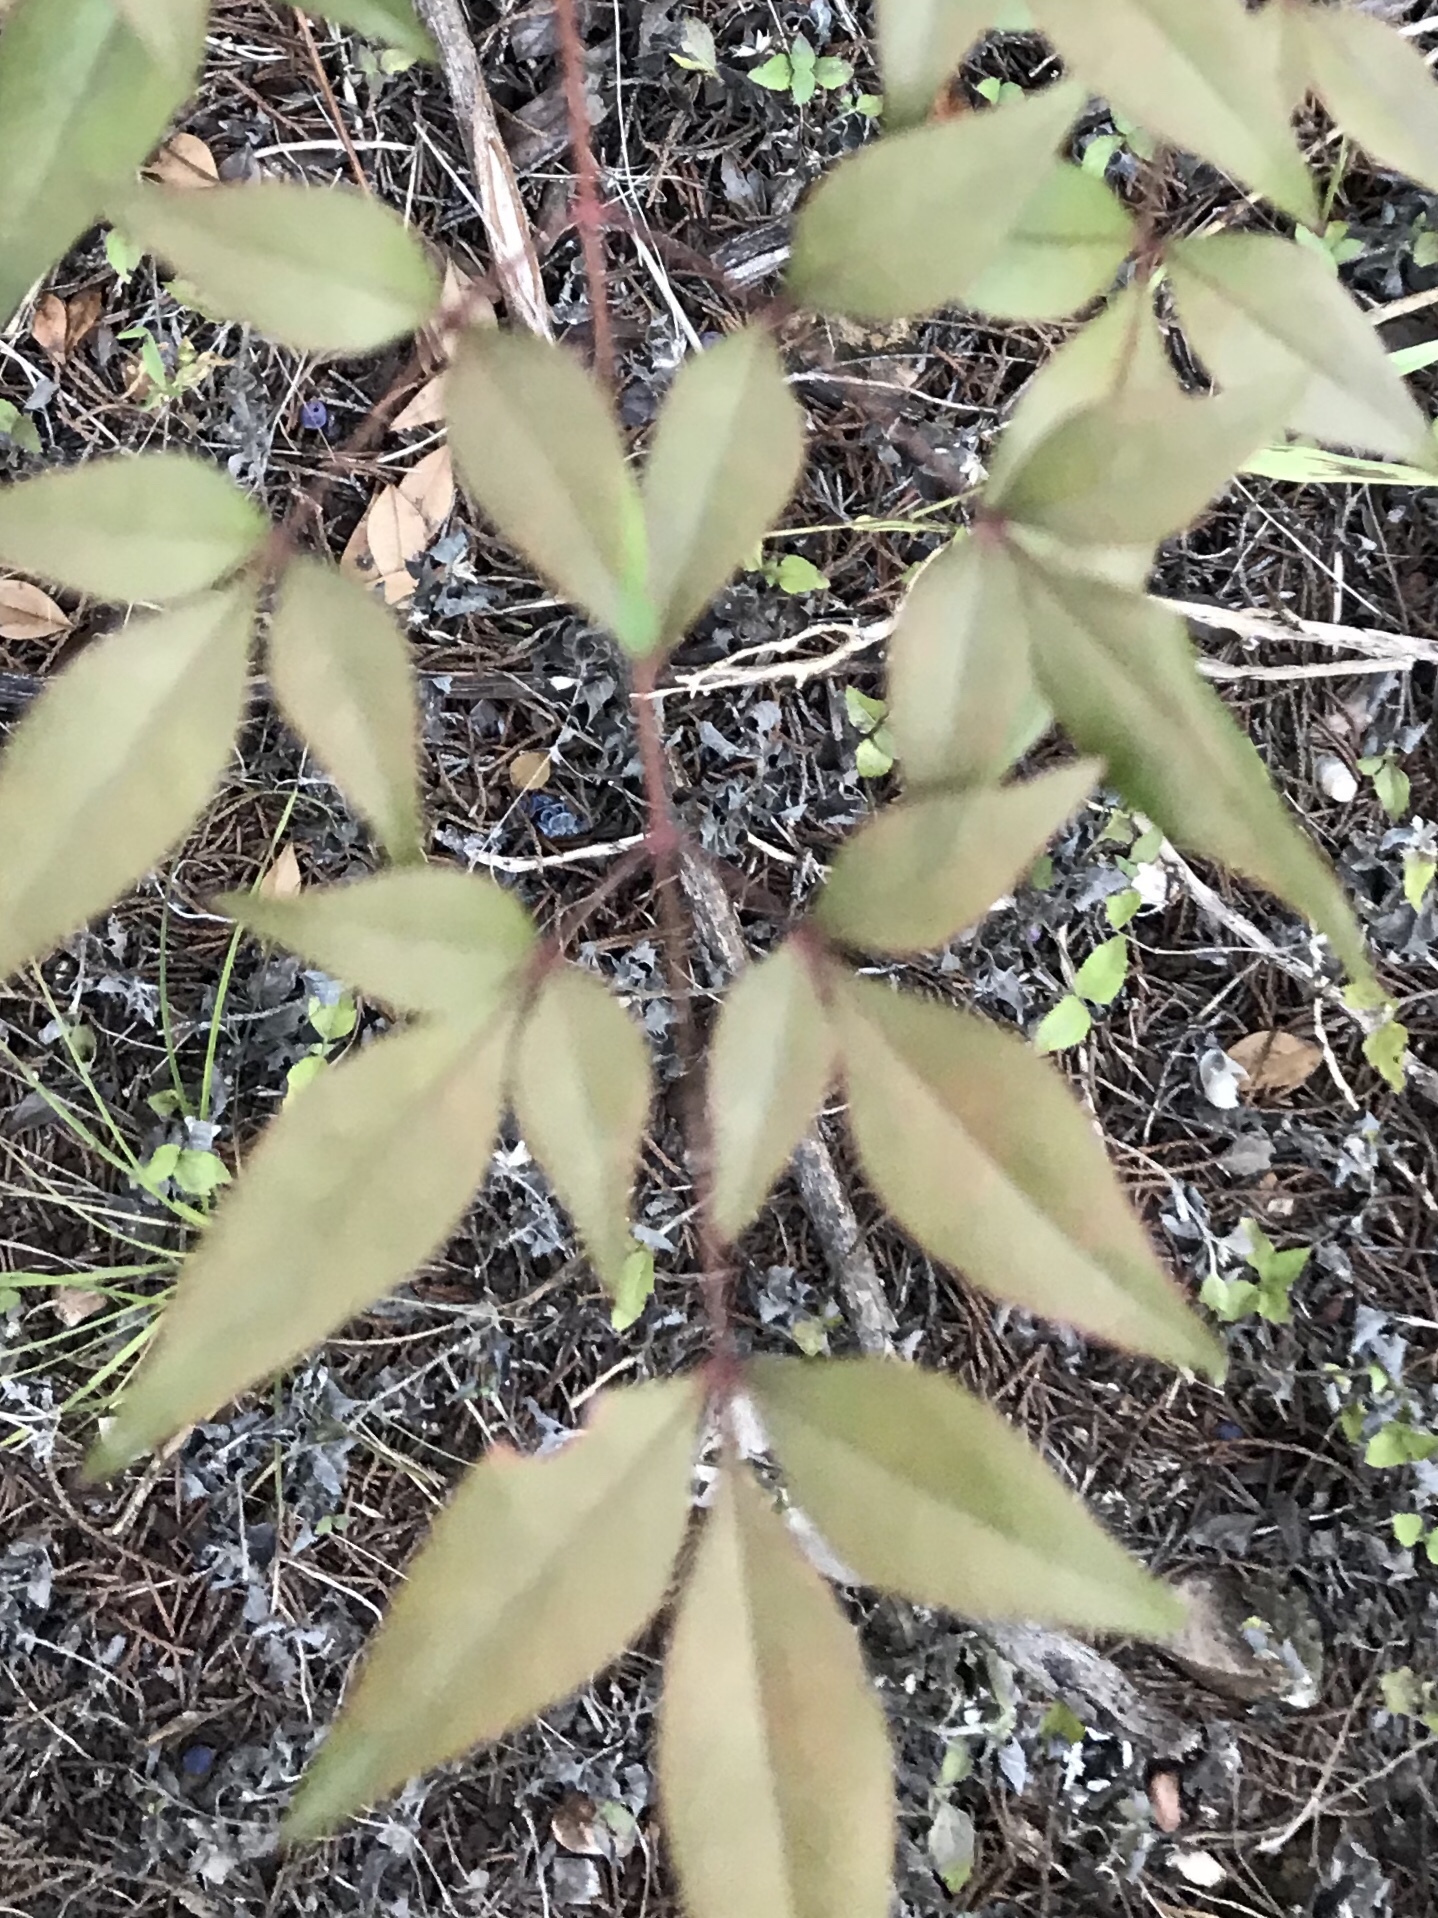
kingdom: Plantae
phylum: Tracheophyta
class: Magnoliopsida
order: Ranunculales
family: Berberidaceae
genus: Nandina
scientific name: Nandina domestica
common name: Sacred bamboo
